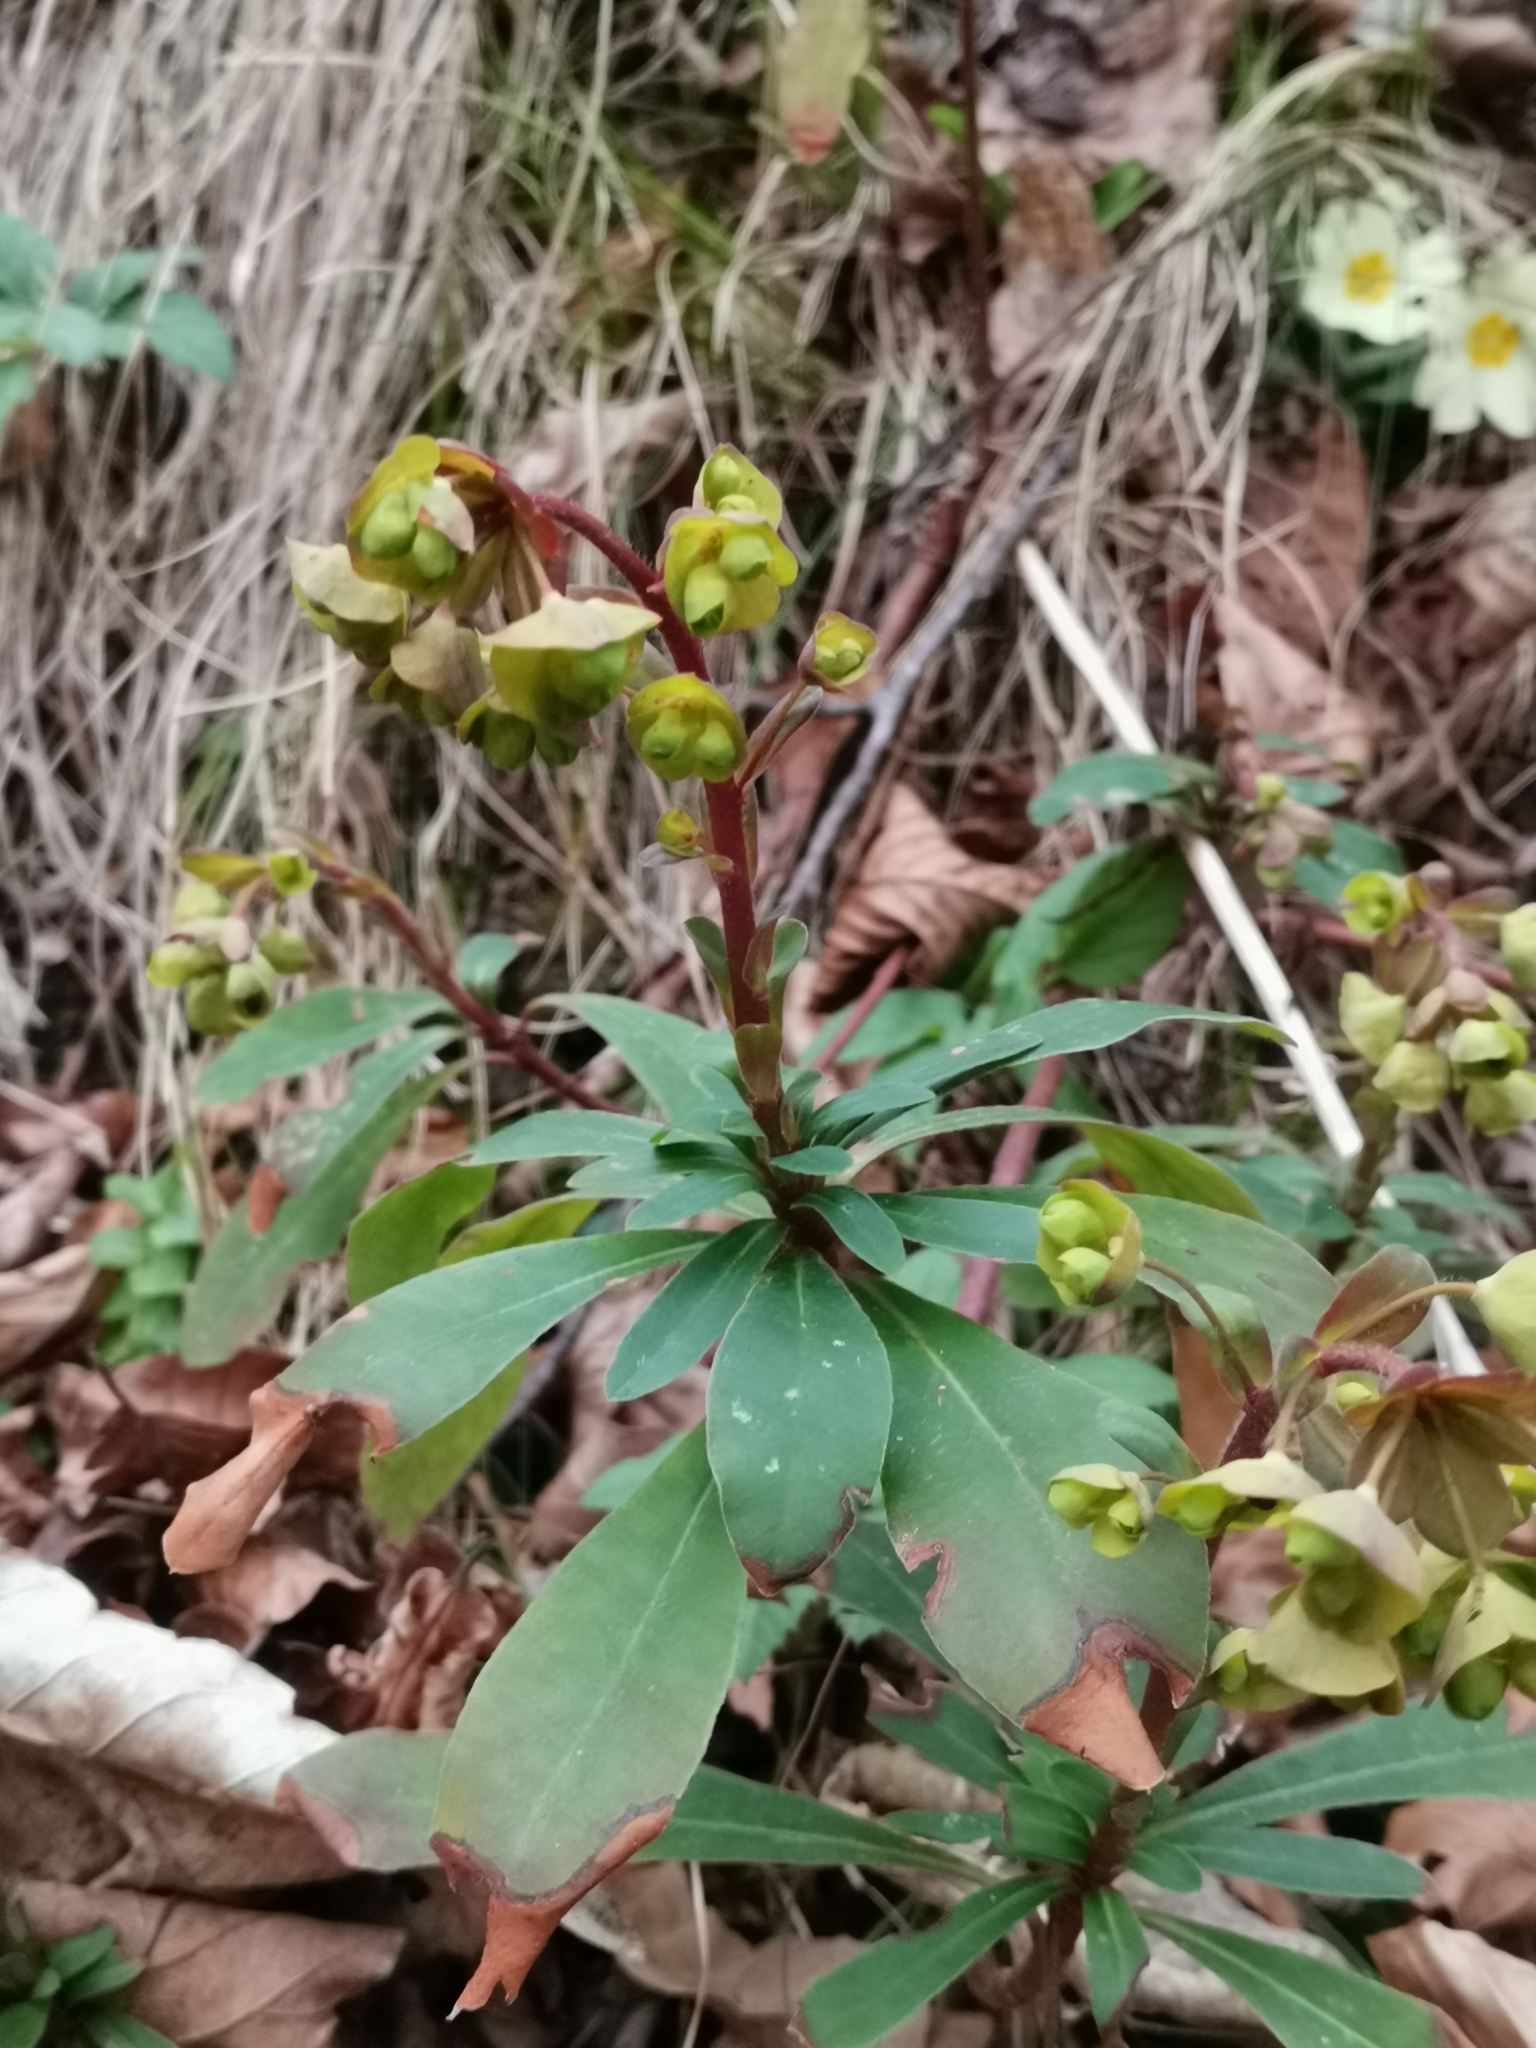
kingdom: Plantae
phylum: Tracheophyta
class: Magnoliopsida
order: Malpighiales
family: Euphorbiaceae
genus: Euphorbia
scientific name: Euphorbia amygdaloides
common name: Wood spurge
